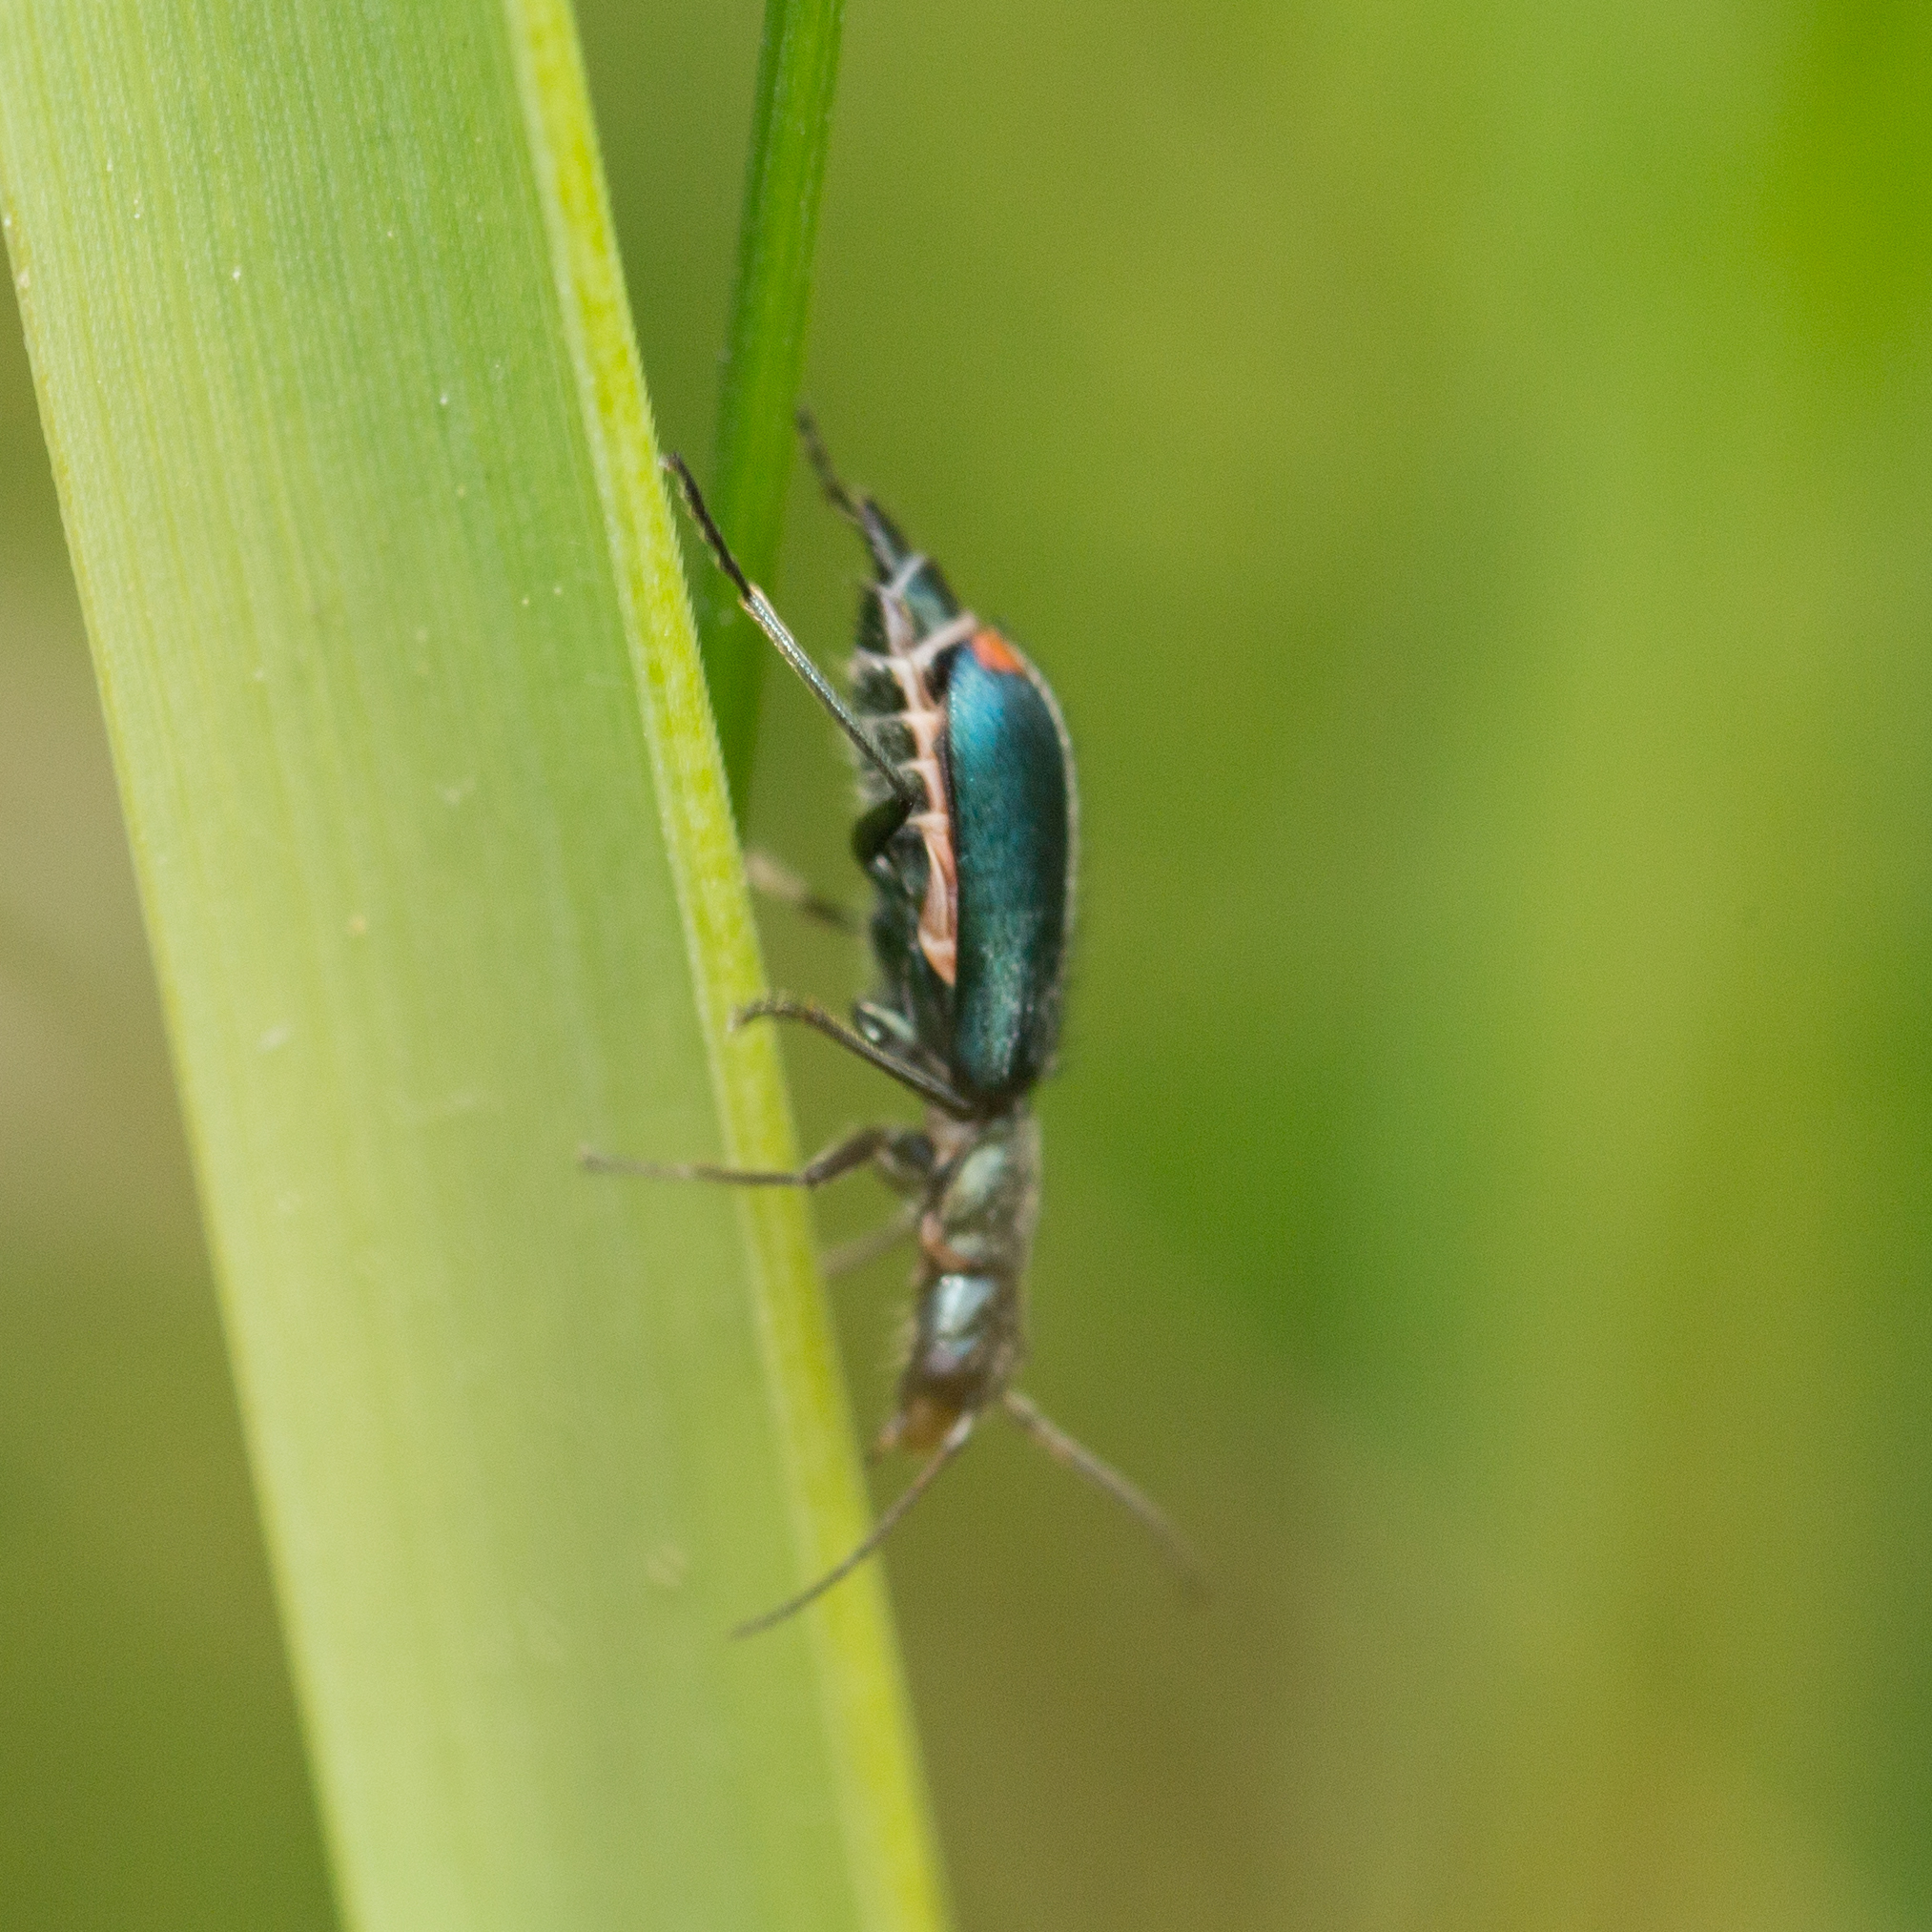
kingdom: Animalia
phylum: Arthropoda
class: Insecta
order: Coleoptera
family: Malachiidae
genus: Cordylepherus
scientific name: Cordylepherus viridis
